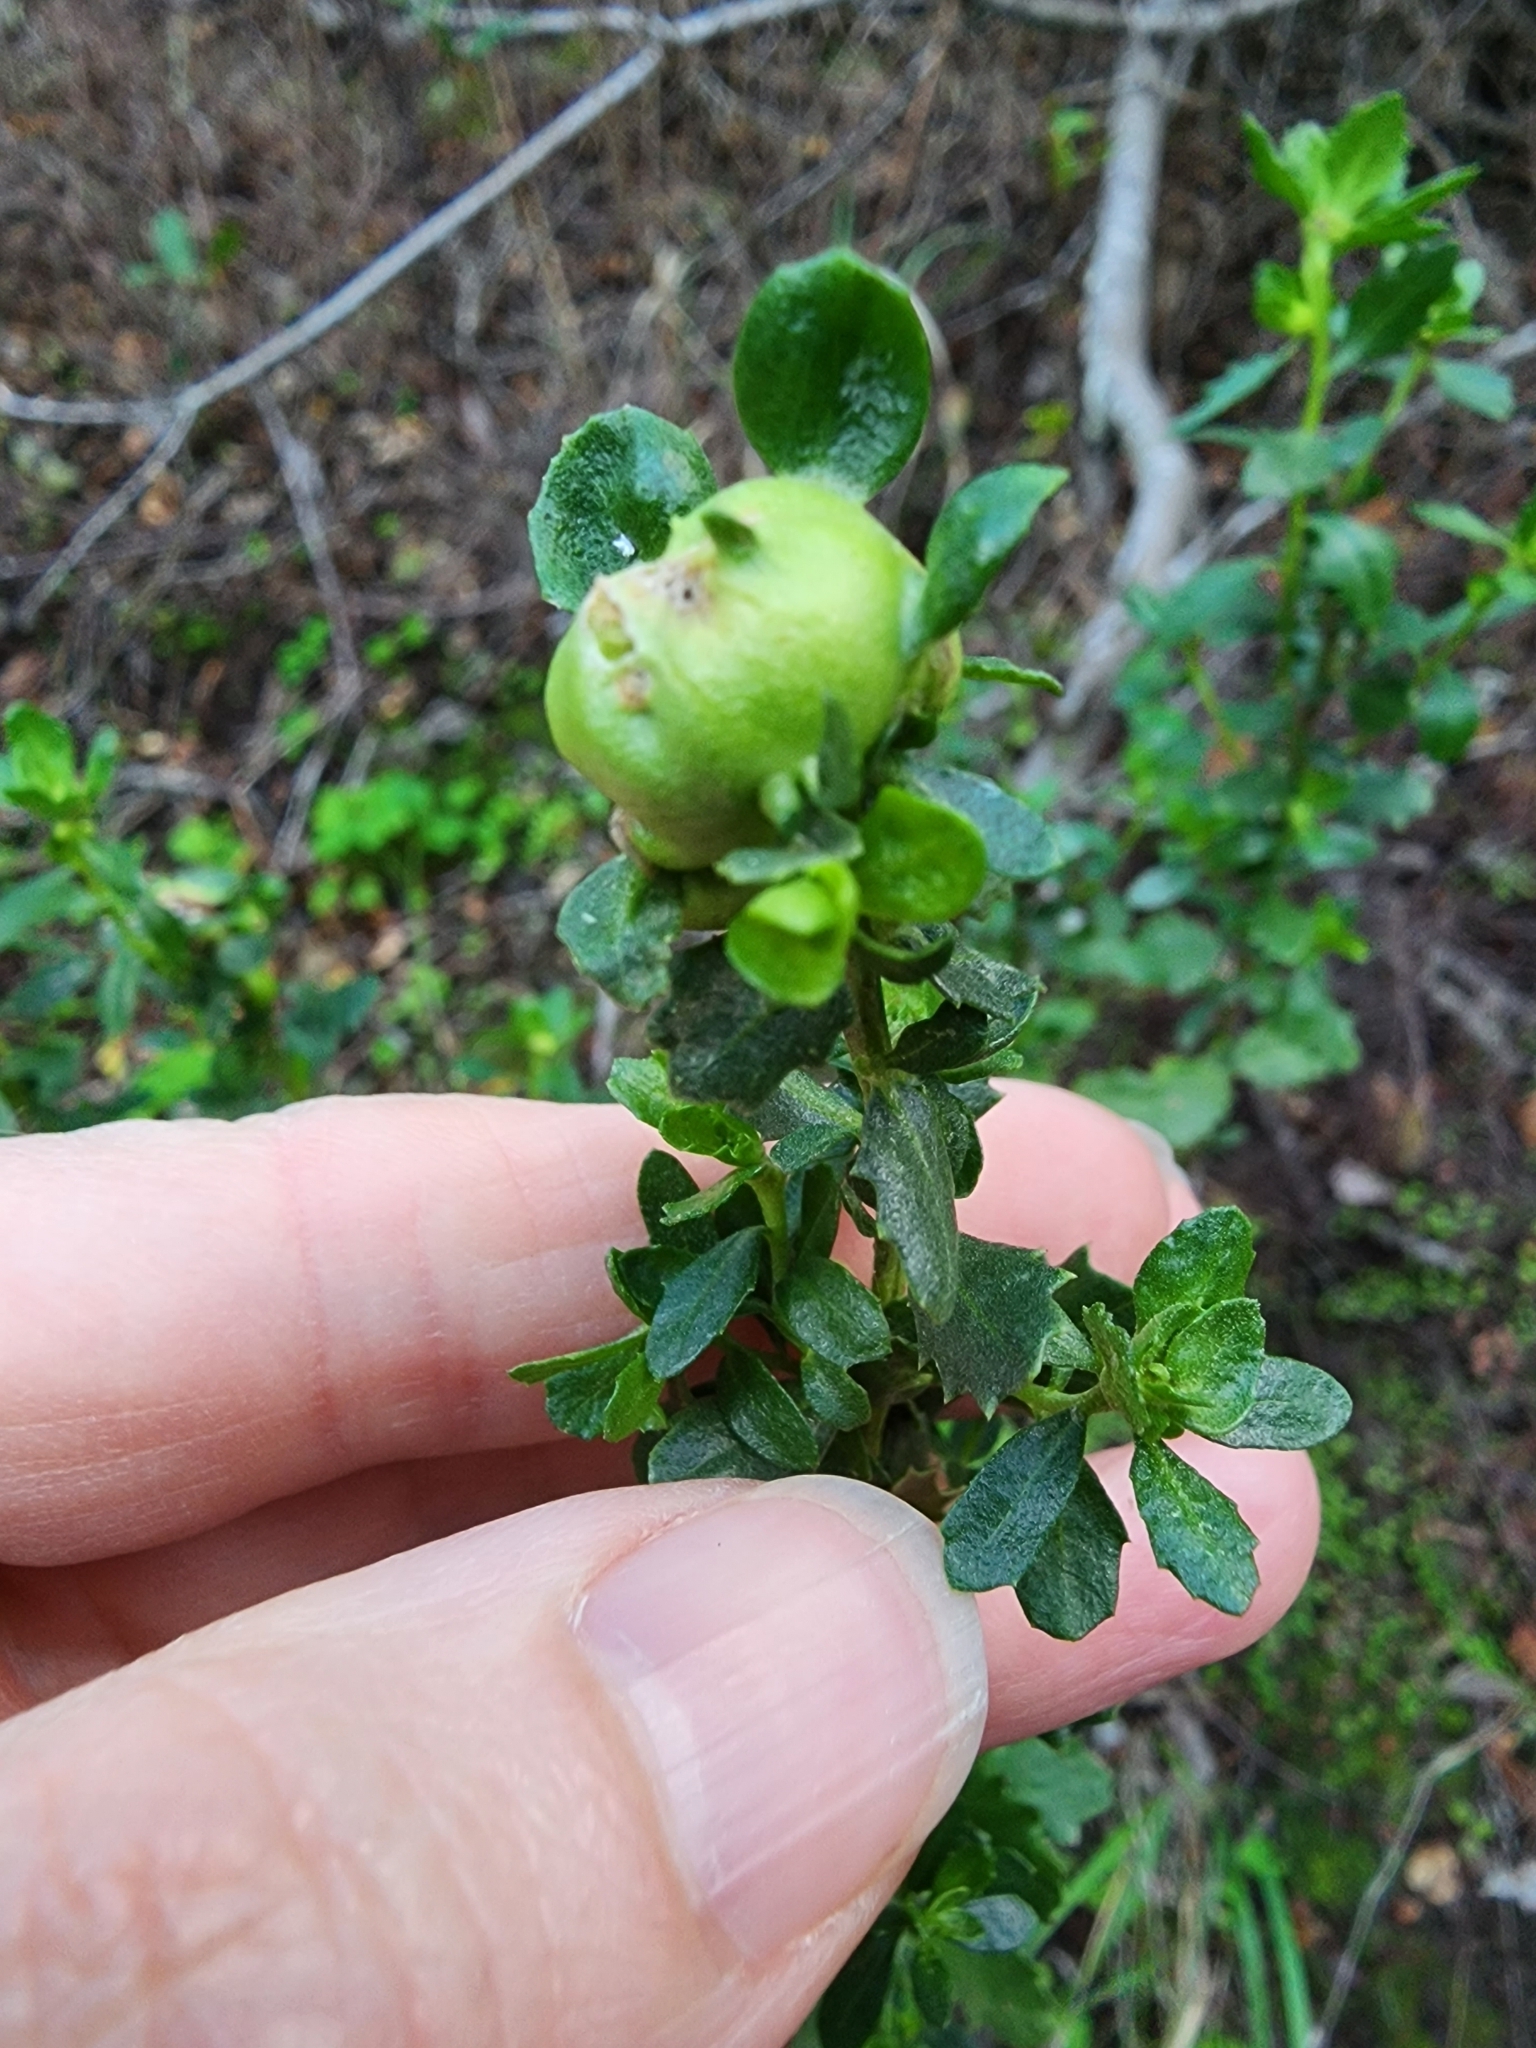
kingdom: Plantae
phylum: Tracheophyta
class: Magnoliopsida
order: Asterales
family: Asteraceae
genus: Baccharis
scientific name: Baccharis pilularis
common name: Coyotebrush
